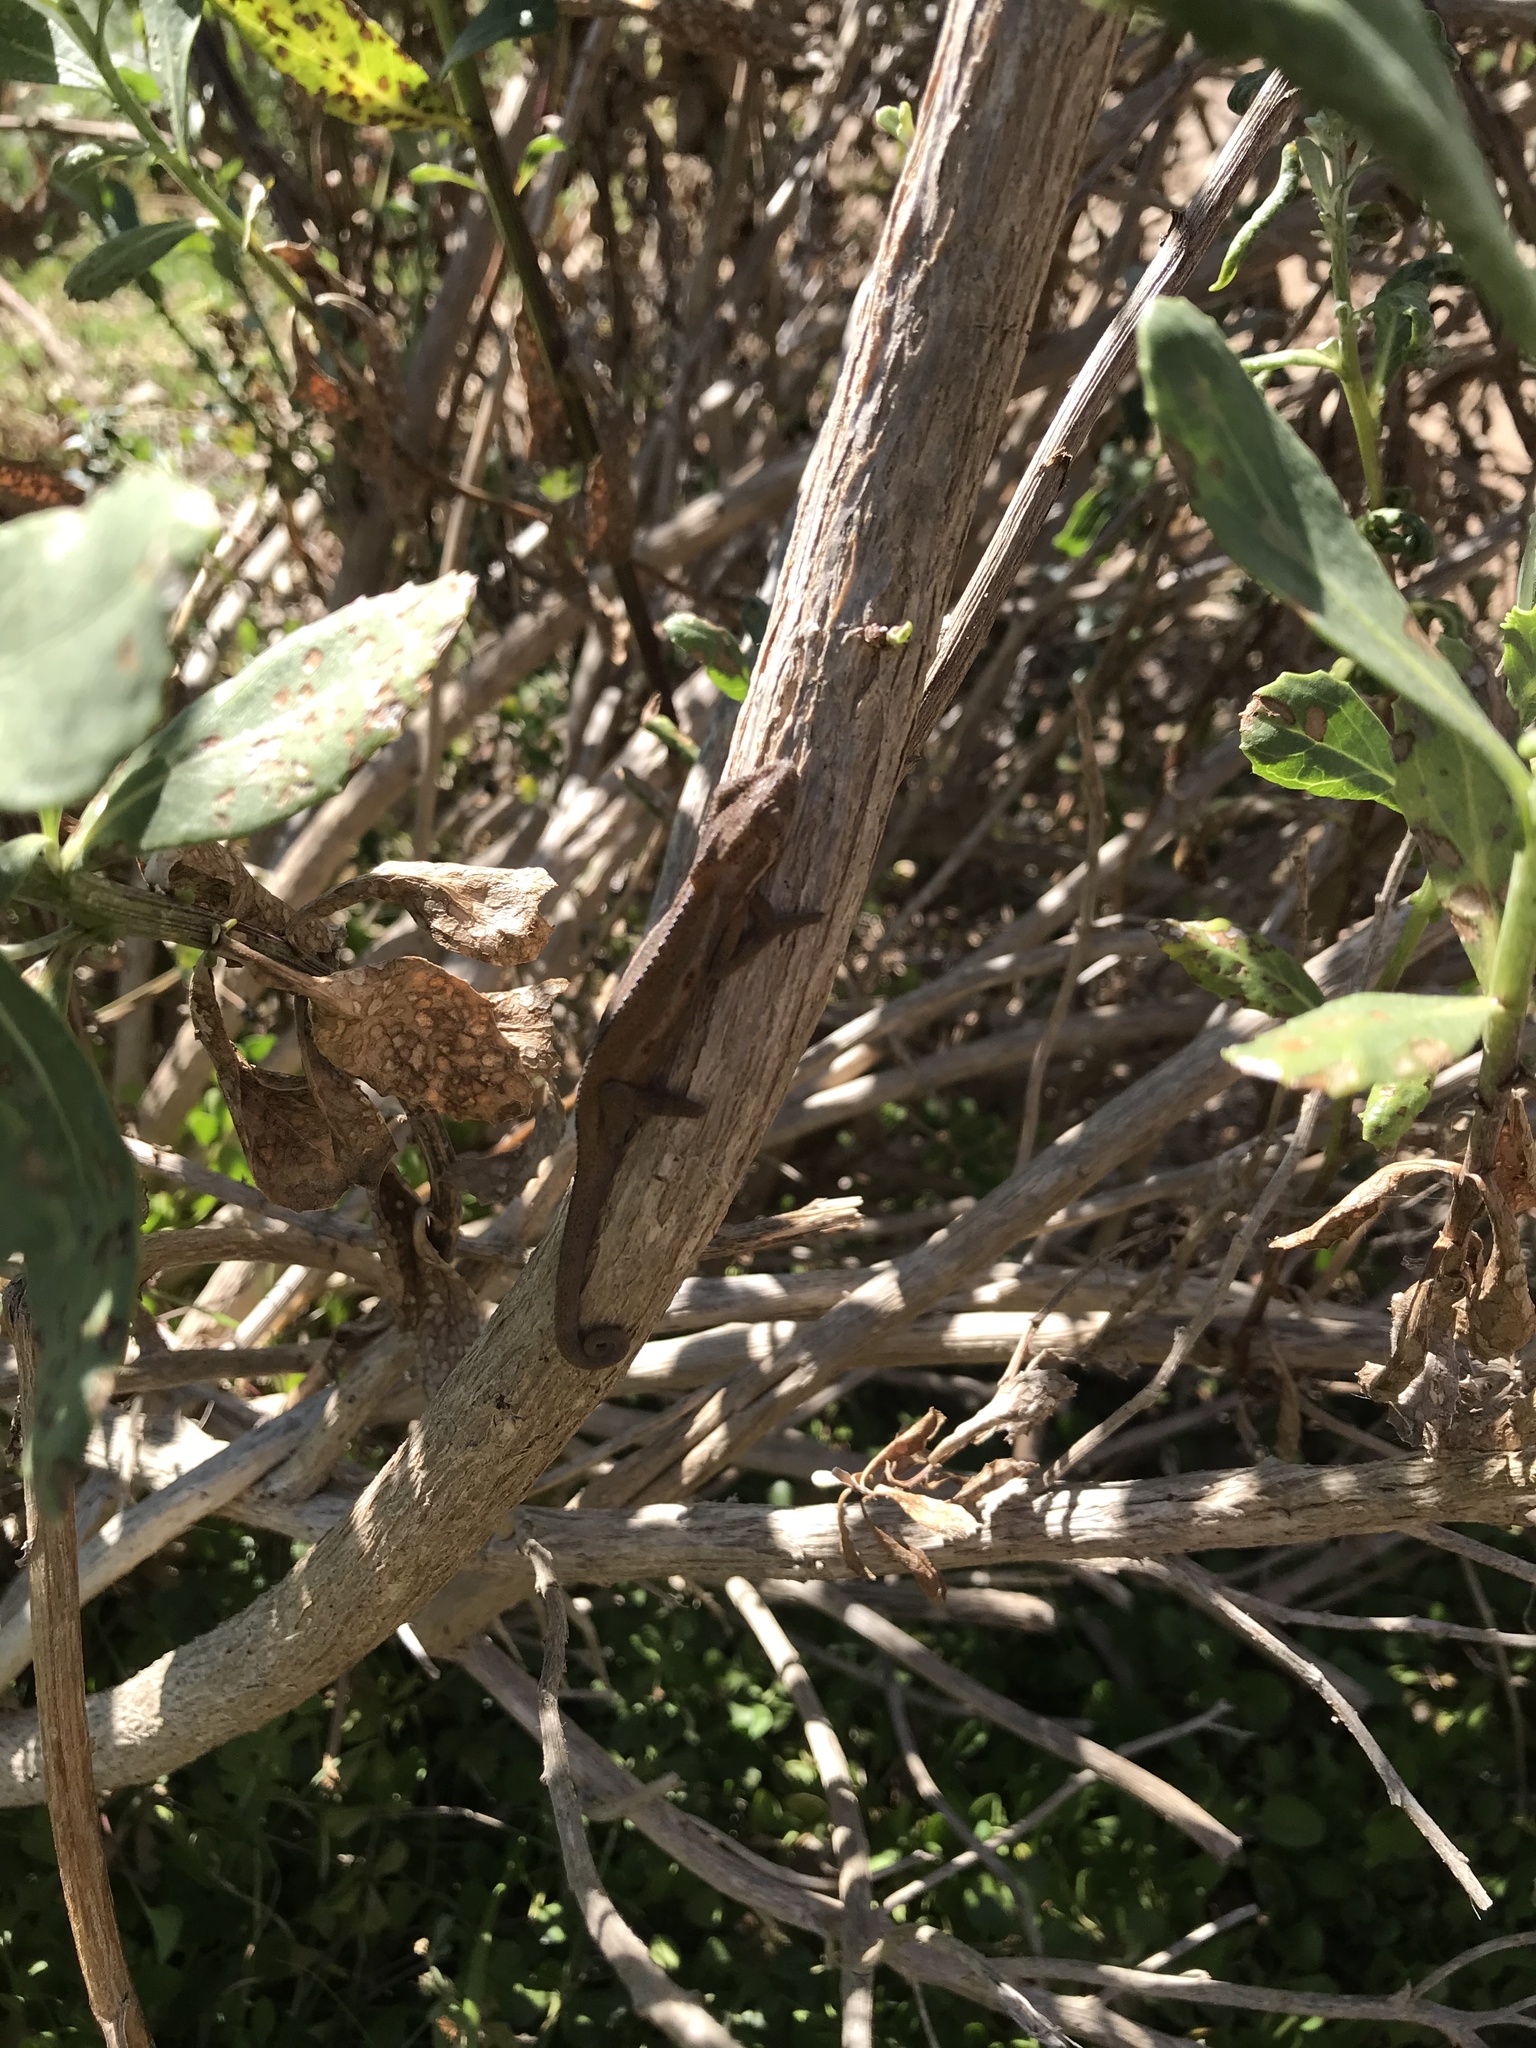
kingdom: Animalia
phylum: Chordata
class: Squamata
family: Chamaeleonidae
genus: Bradypodion
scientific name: Bradypodion pumilum
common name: Cape dwarf chameleon
